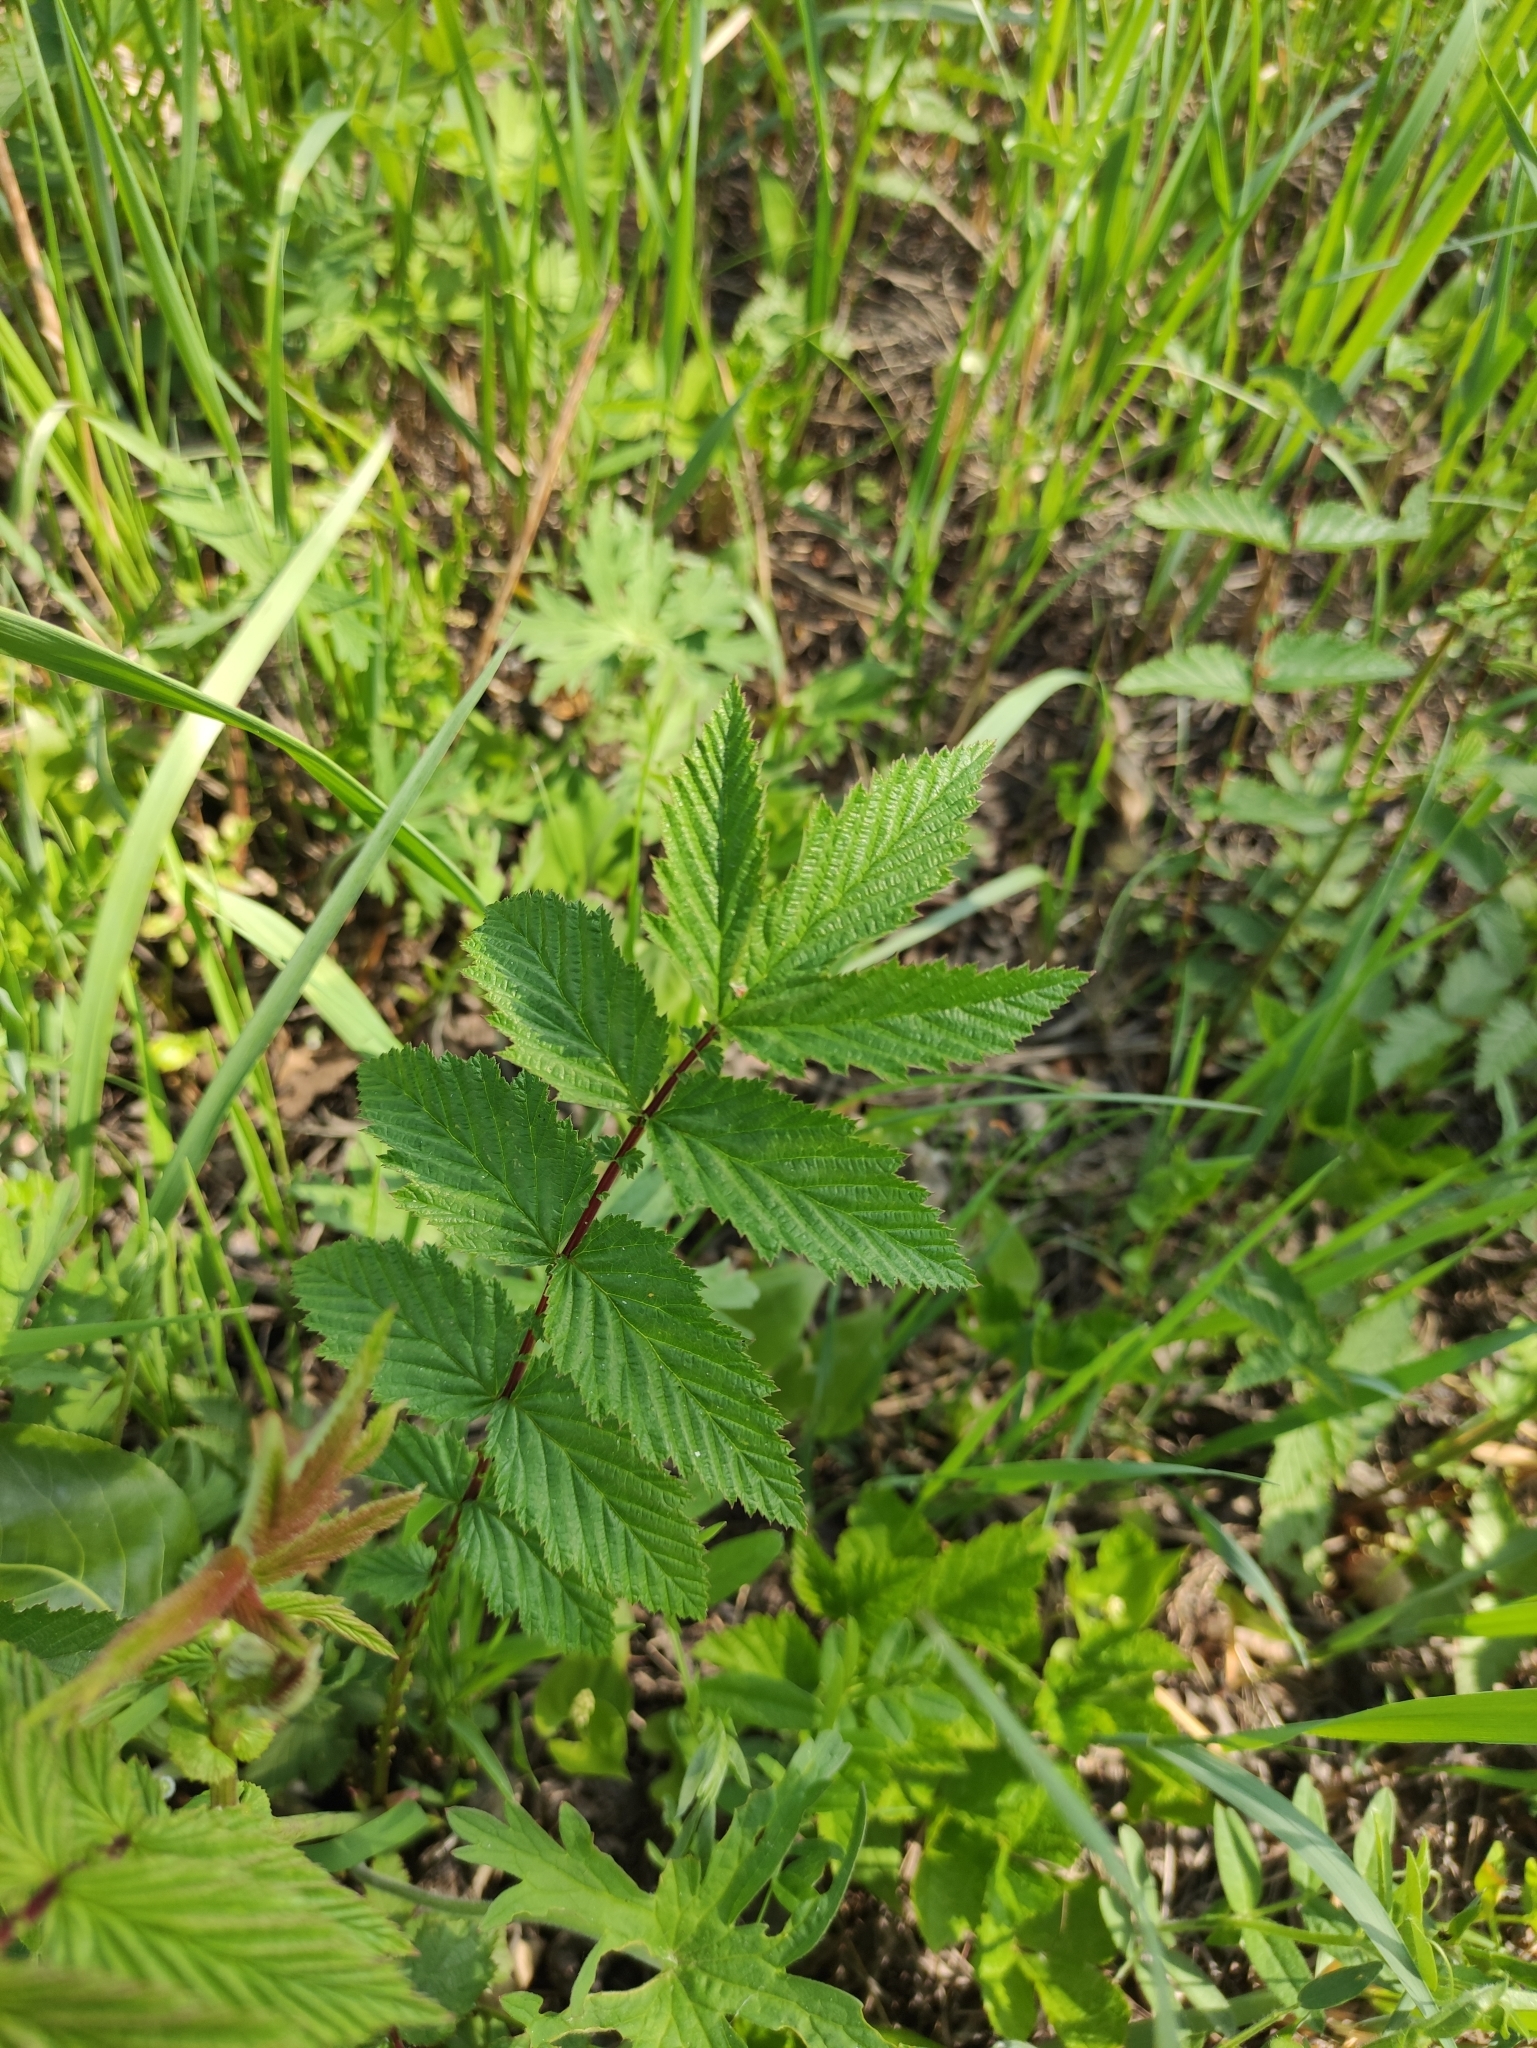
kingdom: Plantae
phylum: Tracheophyta
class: Magnoliopsida
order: Rosales
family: Rosaceae
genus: Filipendula
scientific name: Filipendula ulmaria
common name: Meadowsweet
